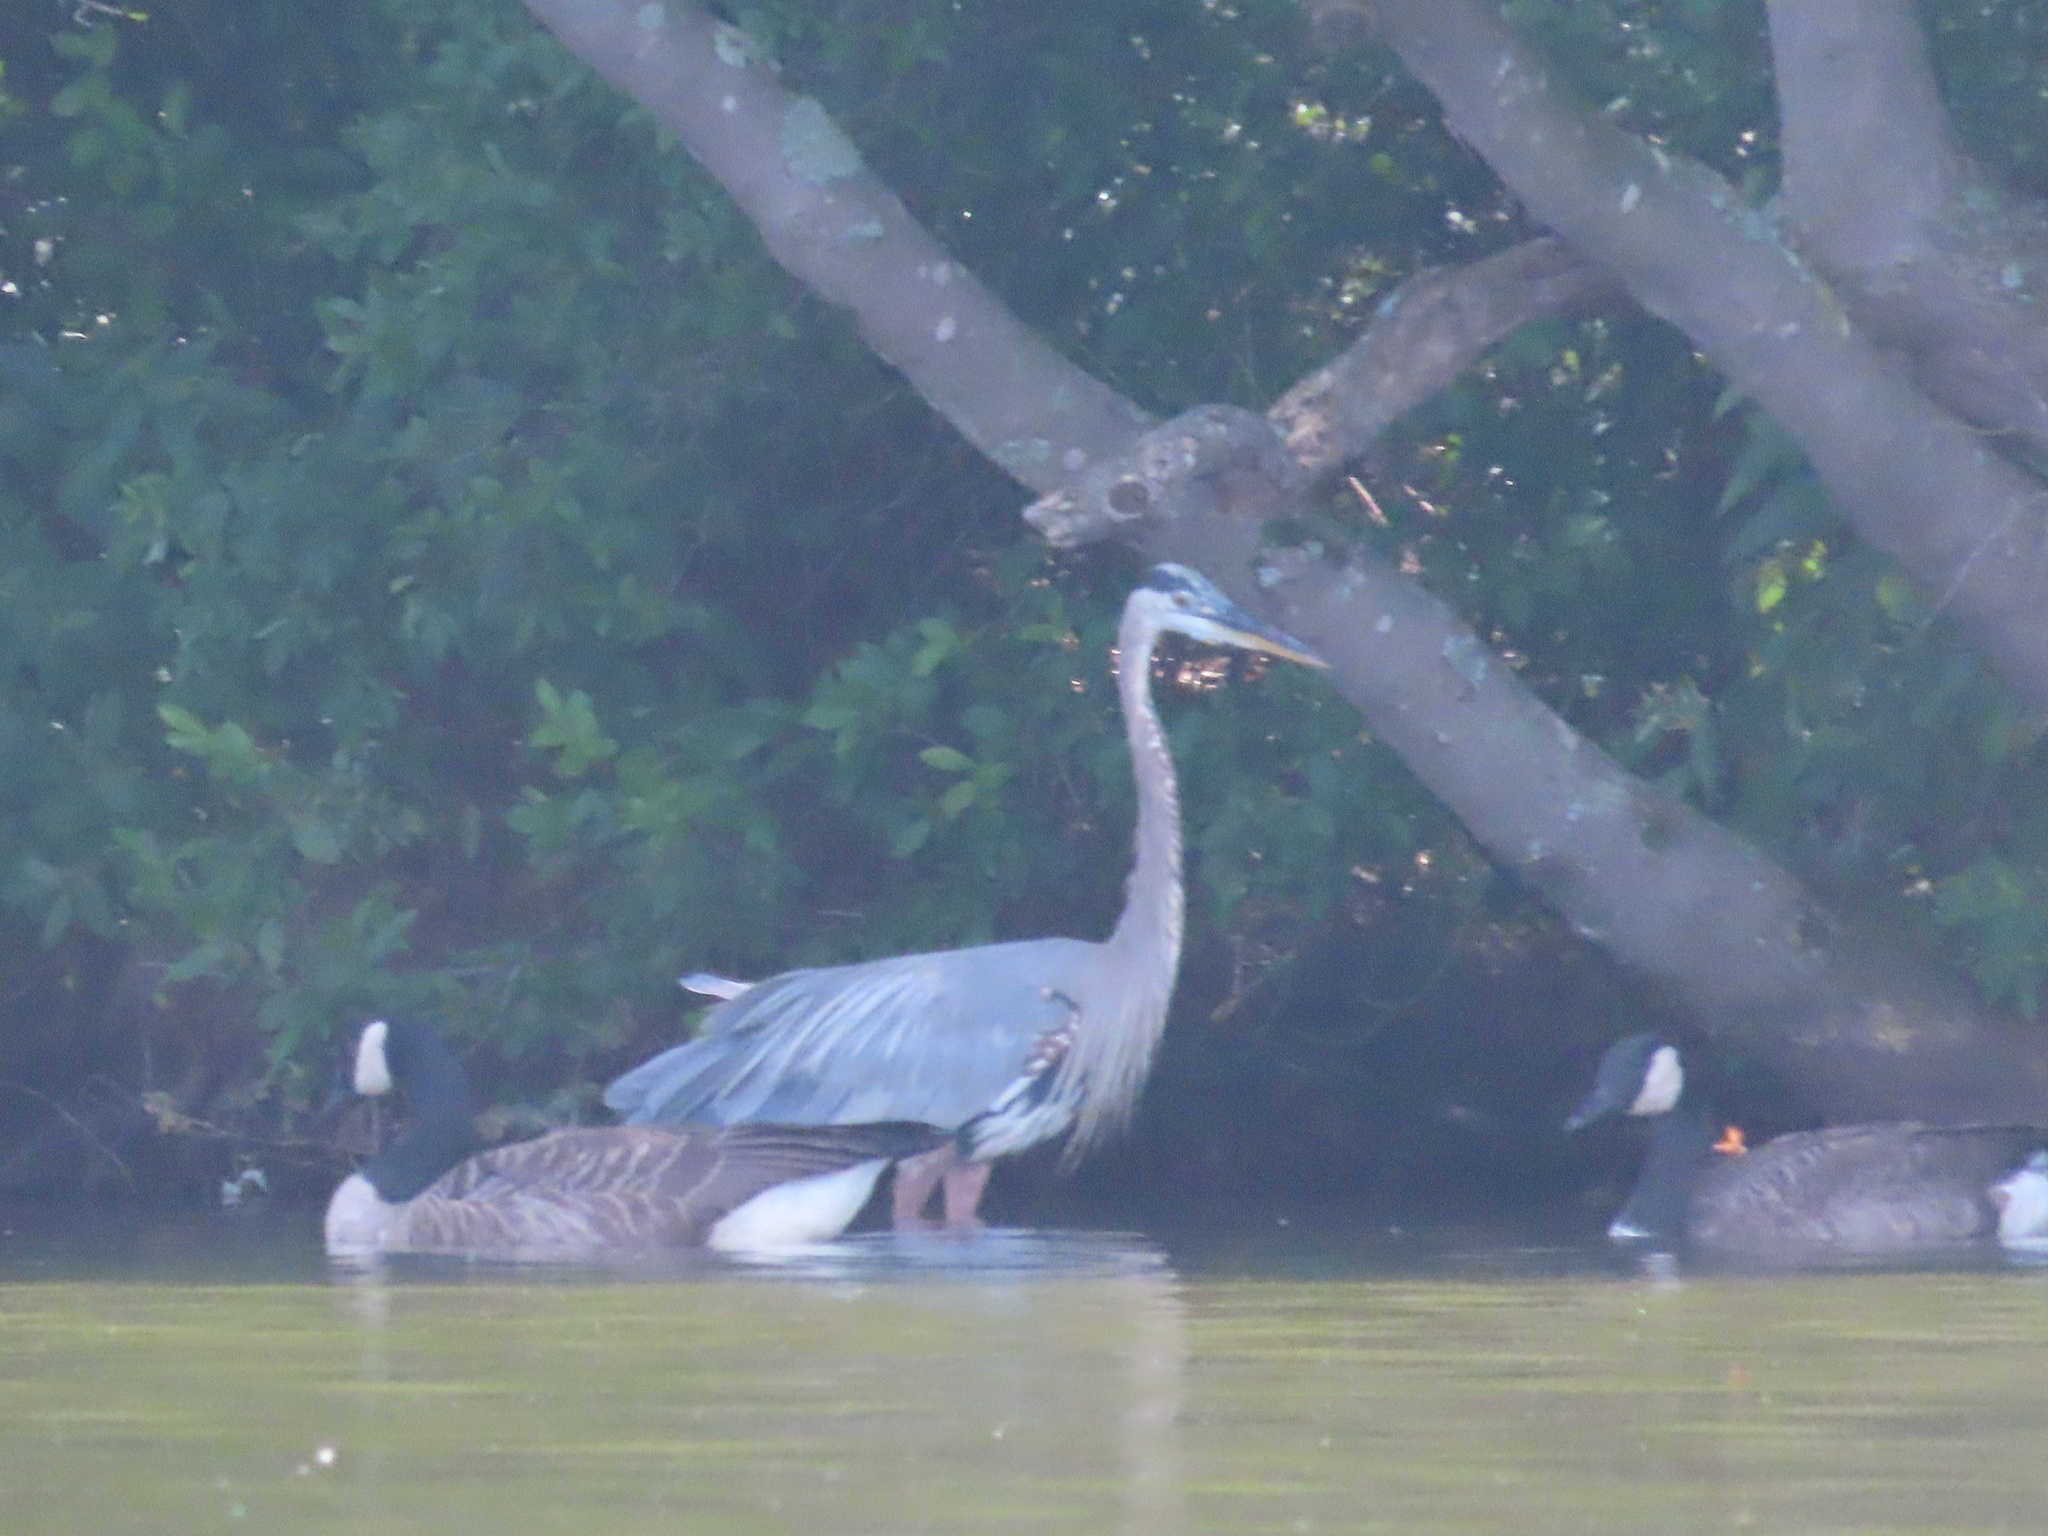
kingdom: Animalia
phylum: Chordata
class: Aves
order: Pelecaniformes
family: Ardeidae
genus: Ardea
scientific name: Ardea herodias
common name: Great blue heron
